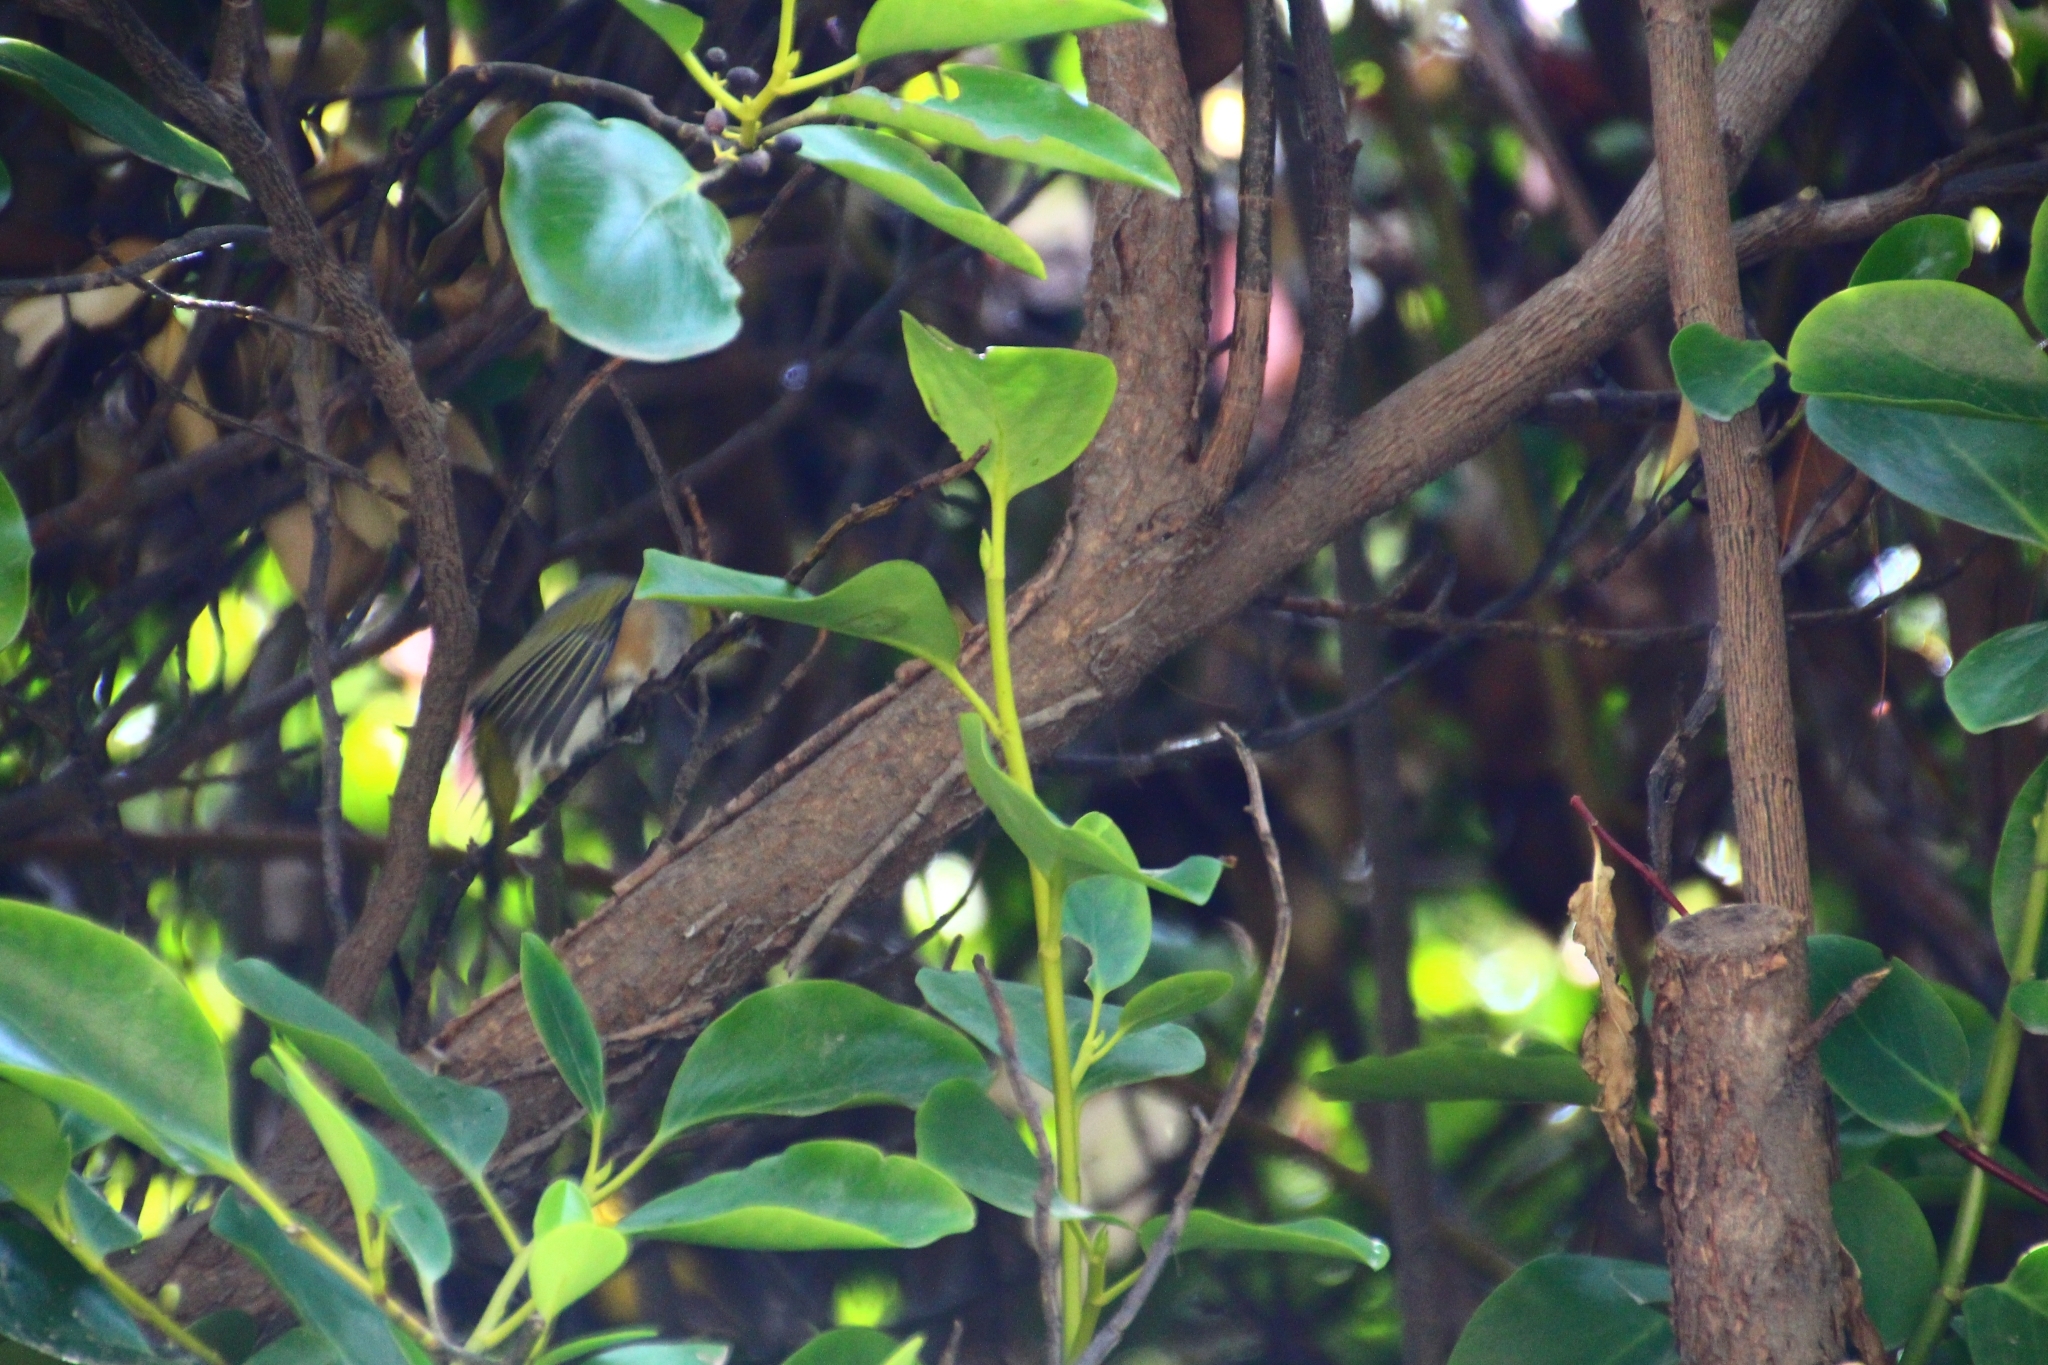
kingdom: Animalia
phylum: Chordata
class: Aves
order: Passeriformes
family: Zosteropidae
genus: Zosterops
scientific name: Zosterops lateralis
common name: Silvereye
